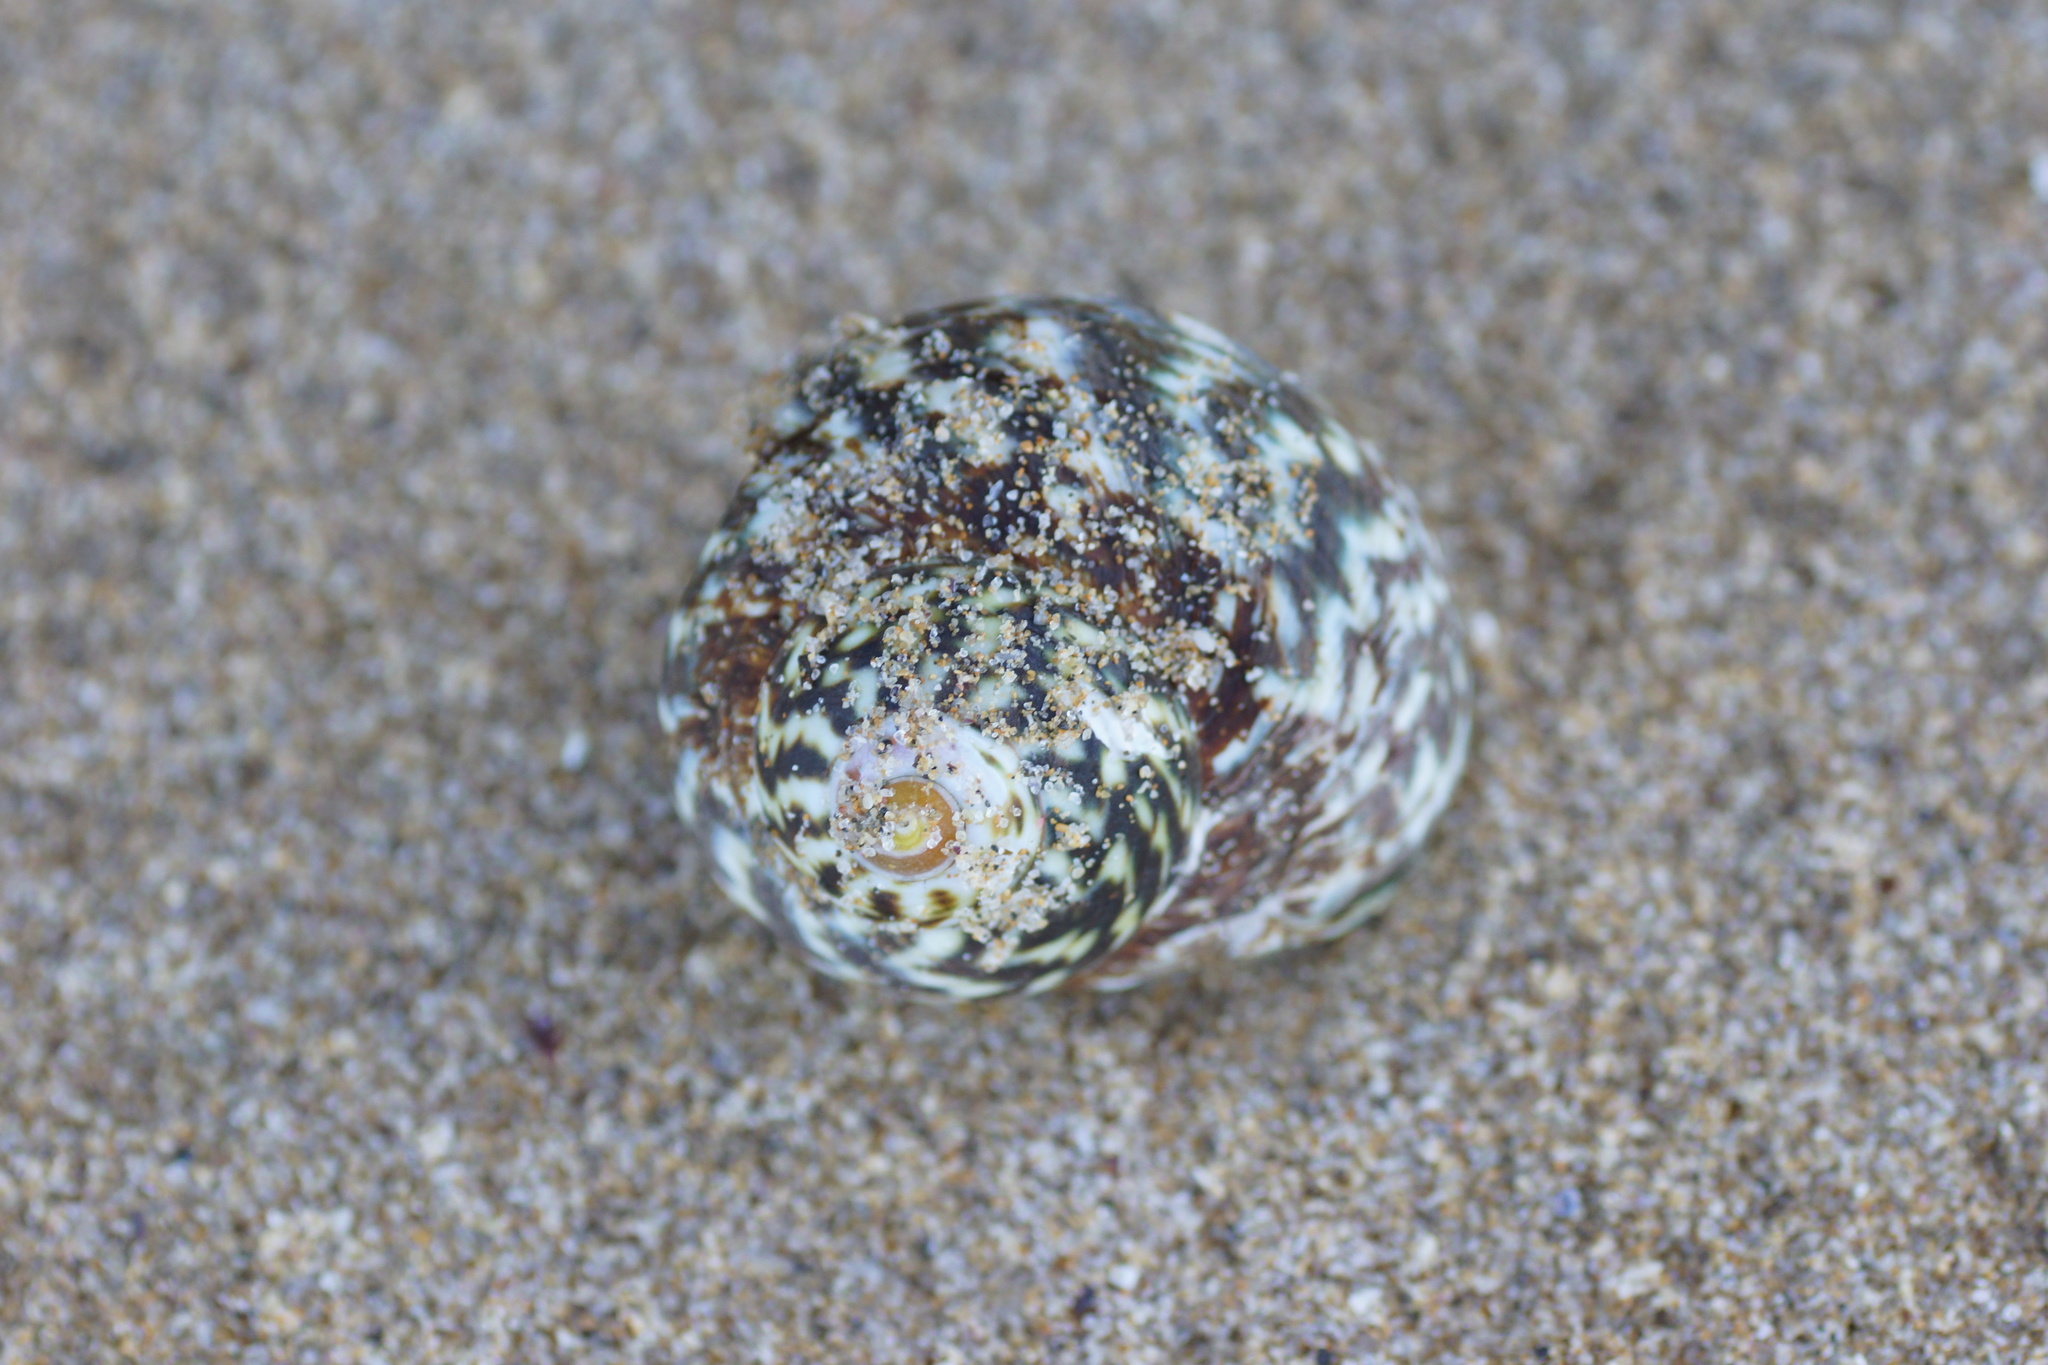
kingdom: Animalia
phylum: Mollusca
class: Gastropoda
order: Trochida
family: Turbinidae
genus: Lunella
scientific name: Lunella undulata
